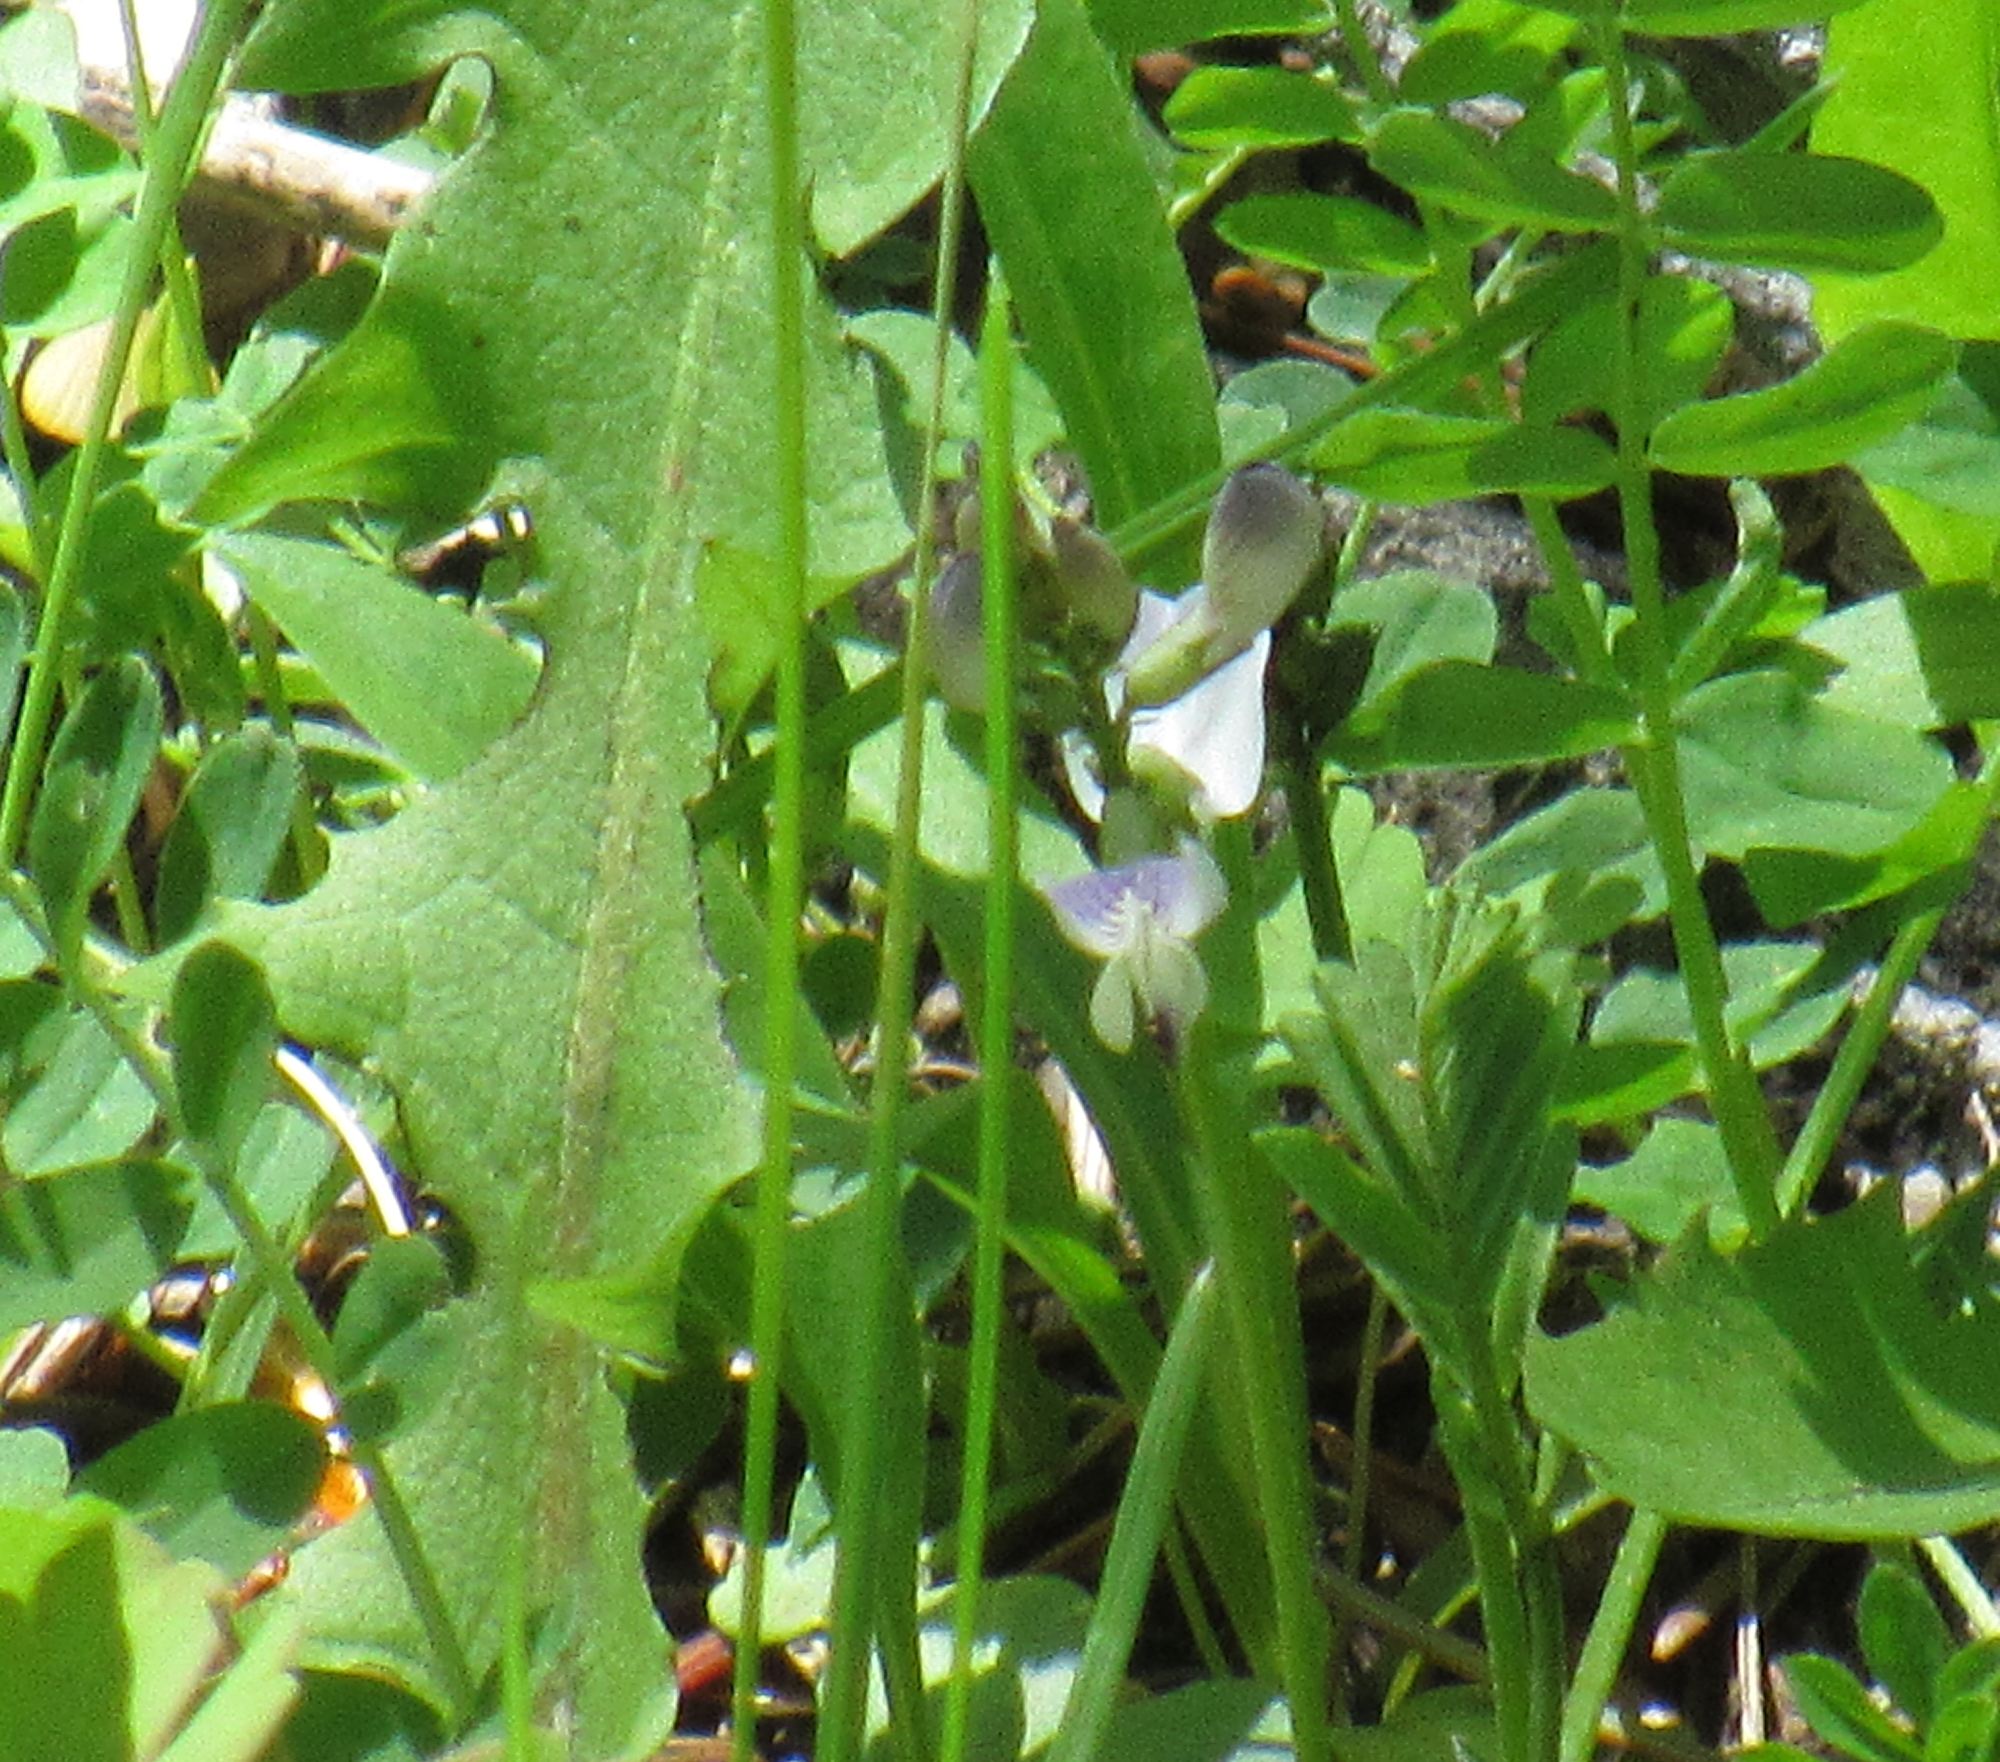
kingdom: Plantae
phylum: Tracheophyta
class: Magnoliopsida
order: Fabales
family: Fabaceae
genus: Astragalus
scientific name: Astragalus alpinus
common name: Alpine milk-vetch
